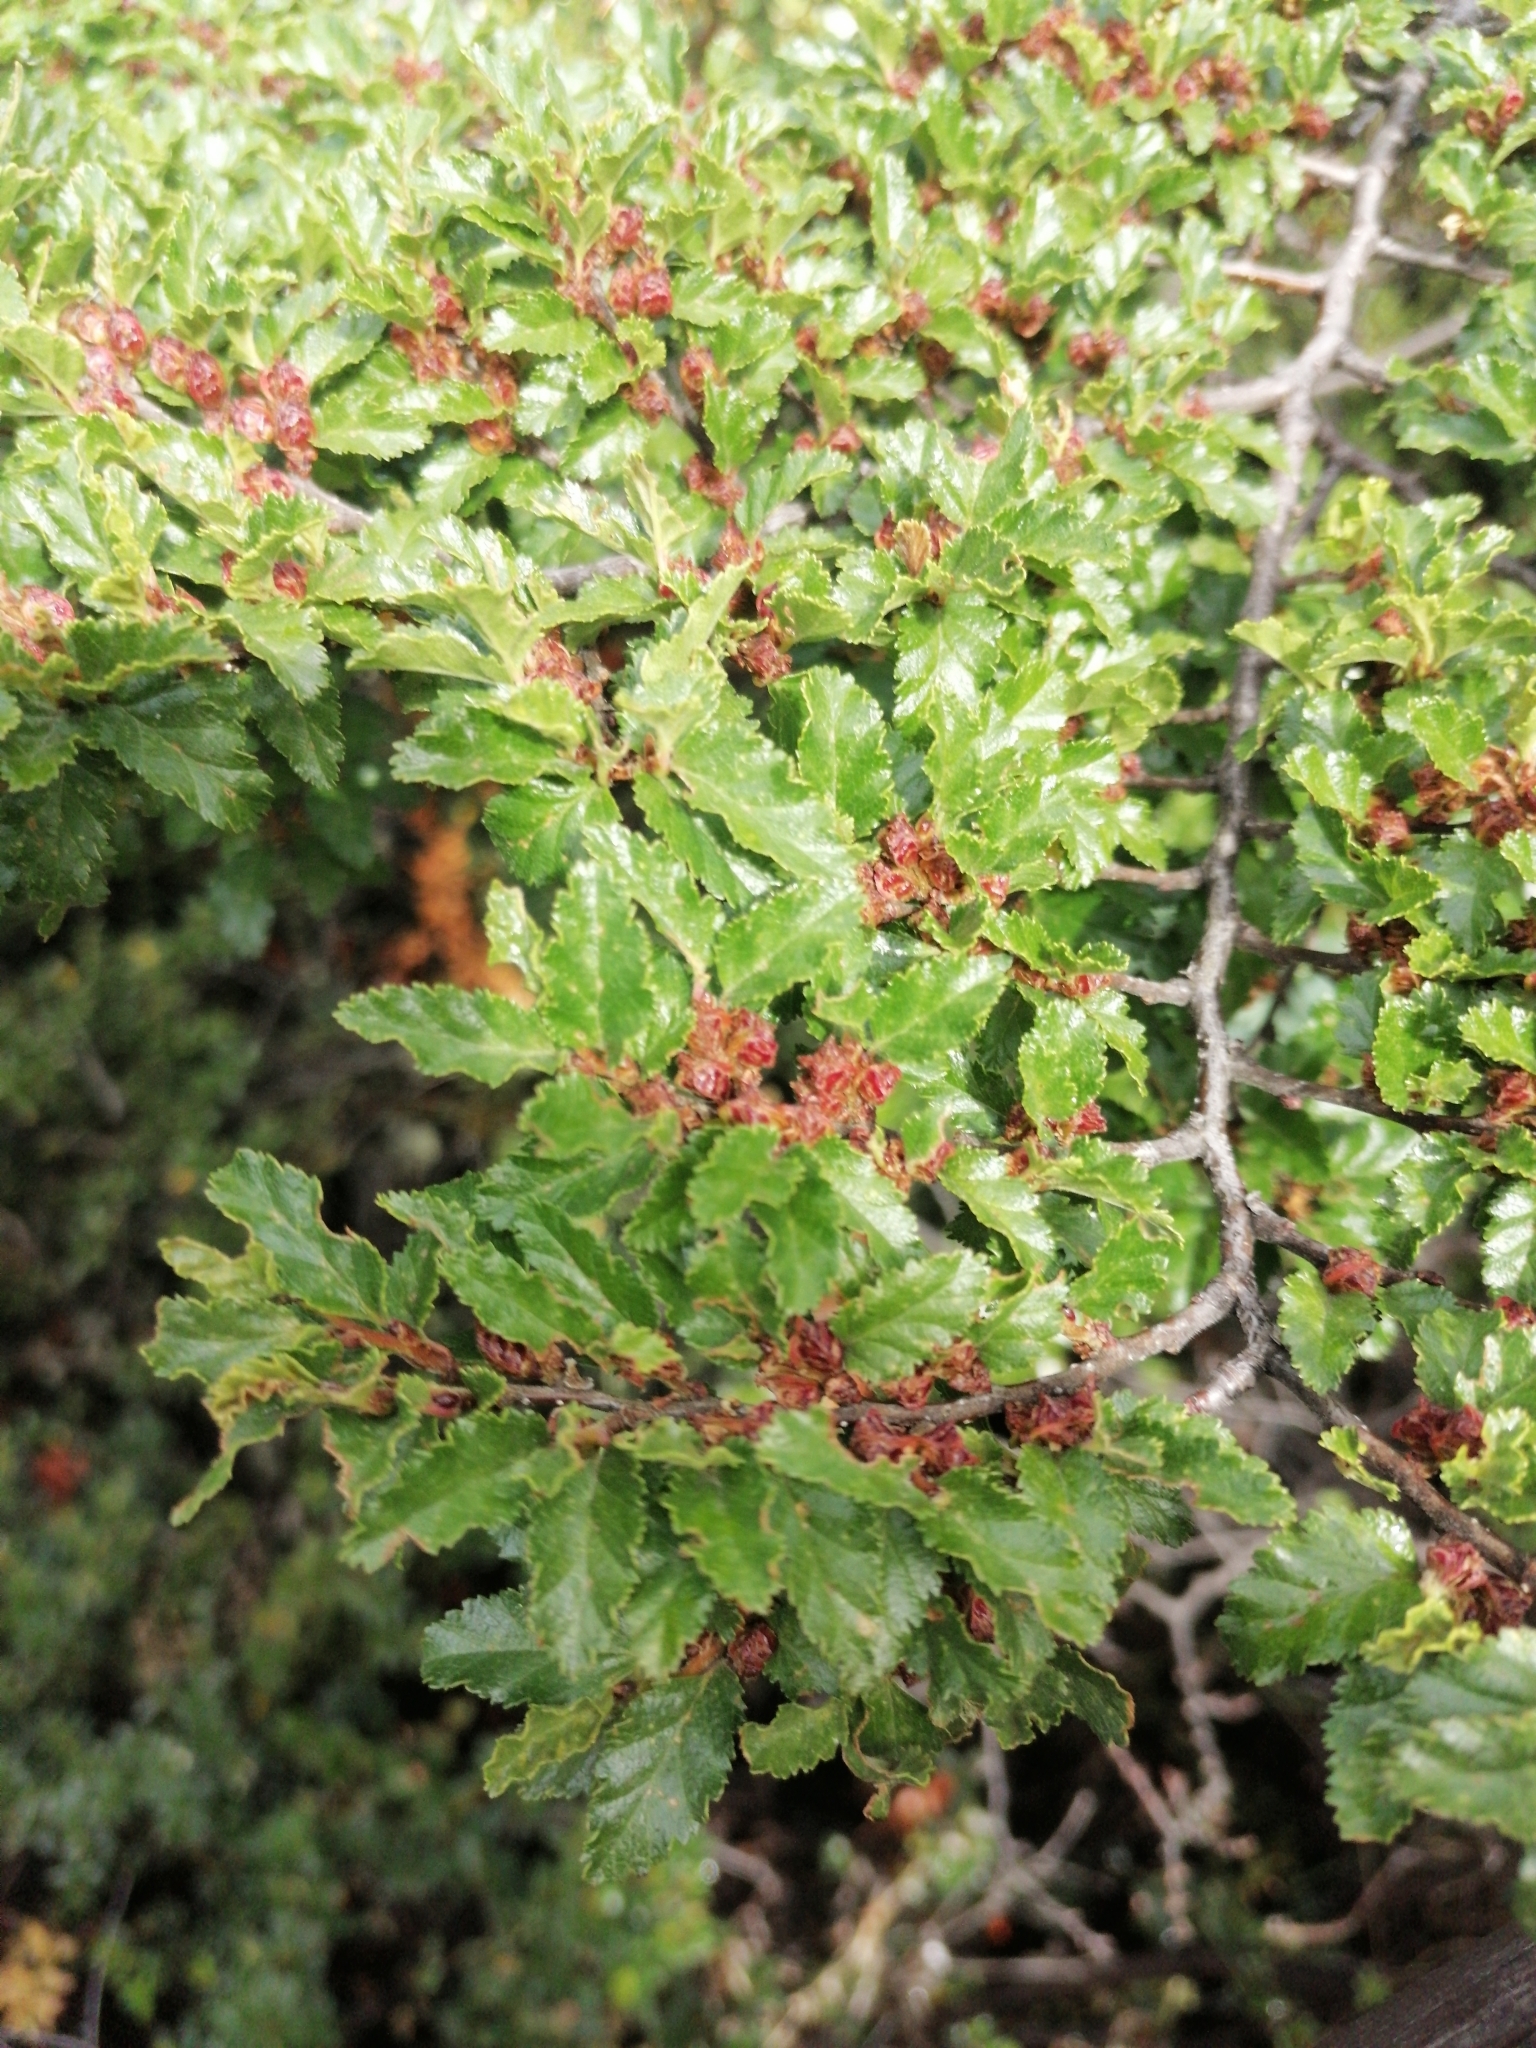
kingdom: Plantae
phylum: Tracheophyta
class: Magnoliopsida
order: Fagales
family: Nothofagaceae
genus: Nothofagus
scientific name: Nothofagus antarctica
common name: Antarctic beech
